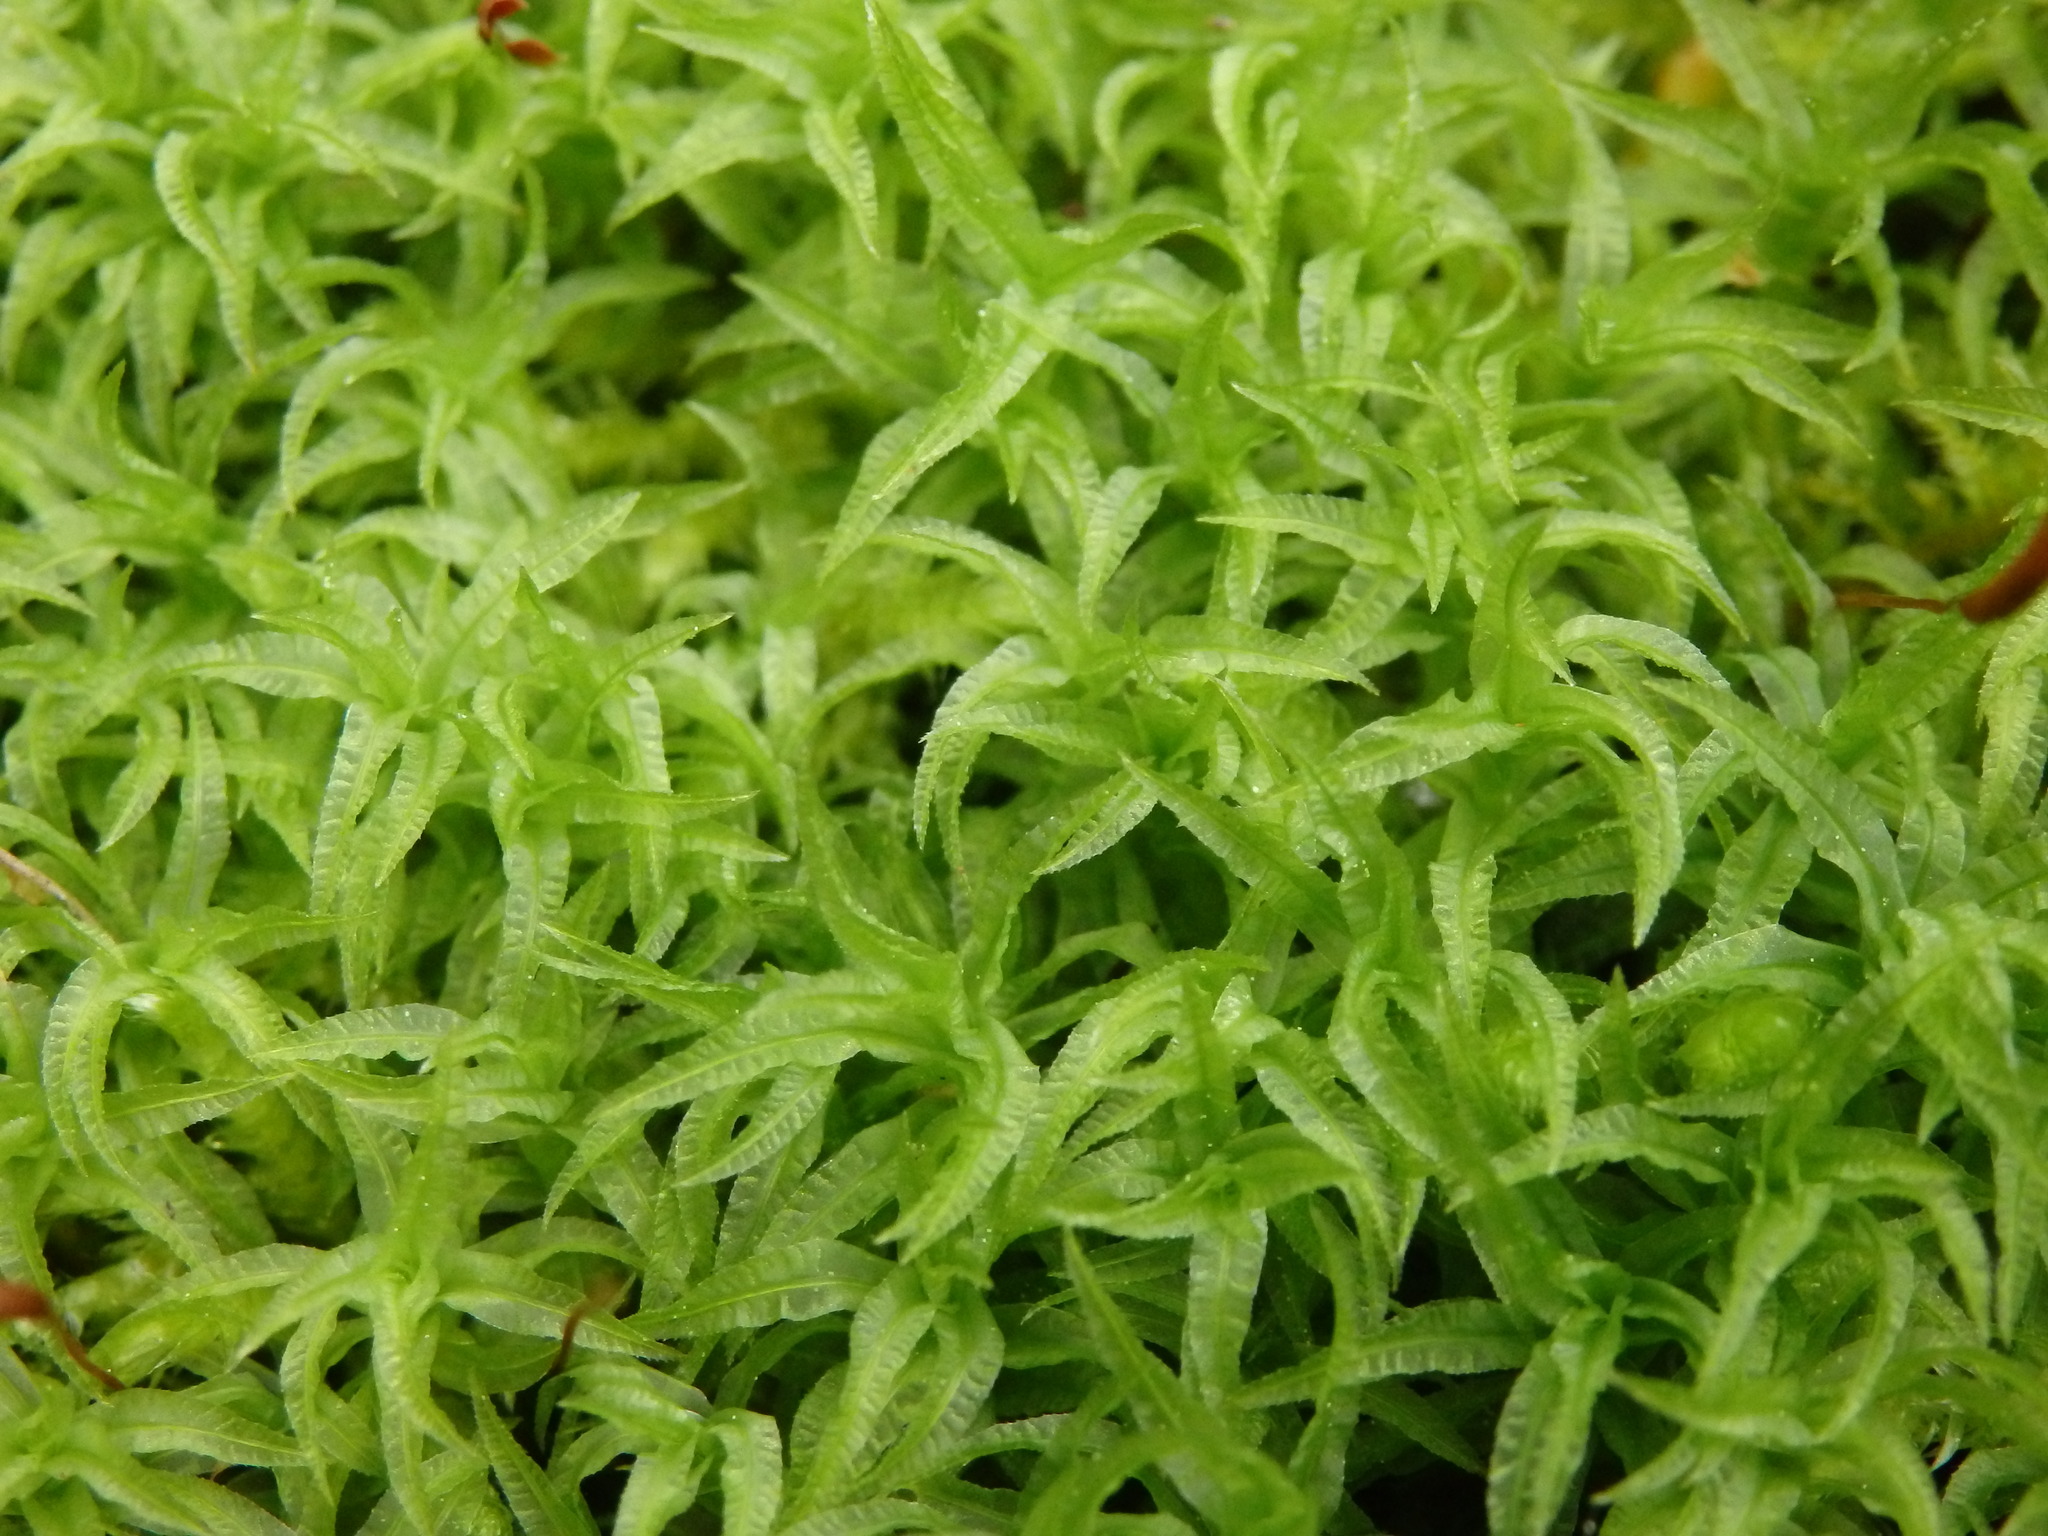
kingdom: Plantae
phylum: Bryophyta
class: Polytrichopsida
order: Polytrichales
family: Polytrichaceae
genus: Atrichum
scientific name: Atrichum undulatum
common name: Common smoothcap
